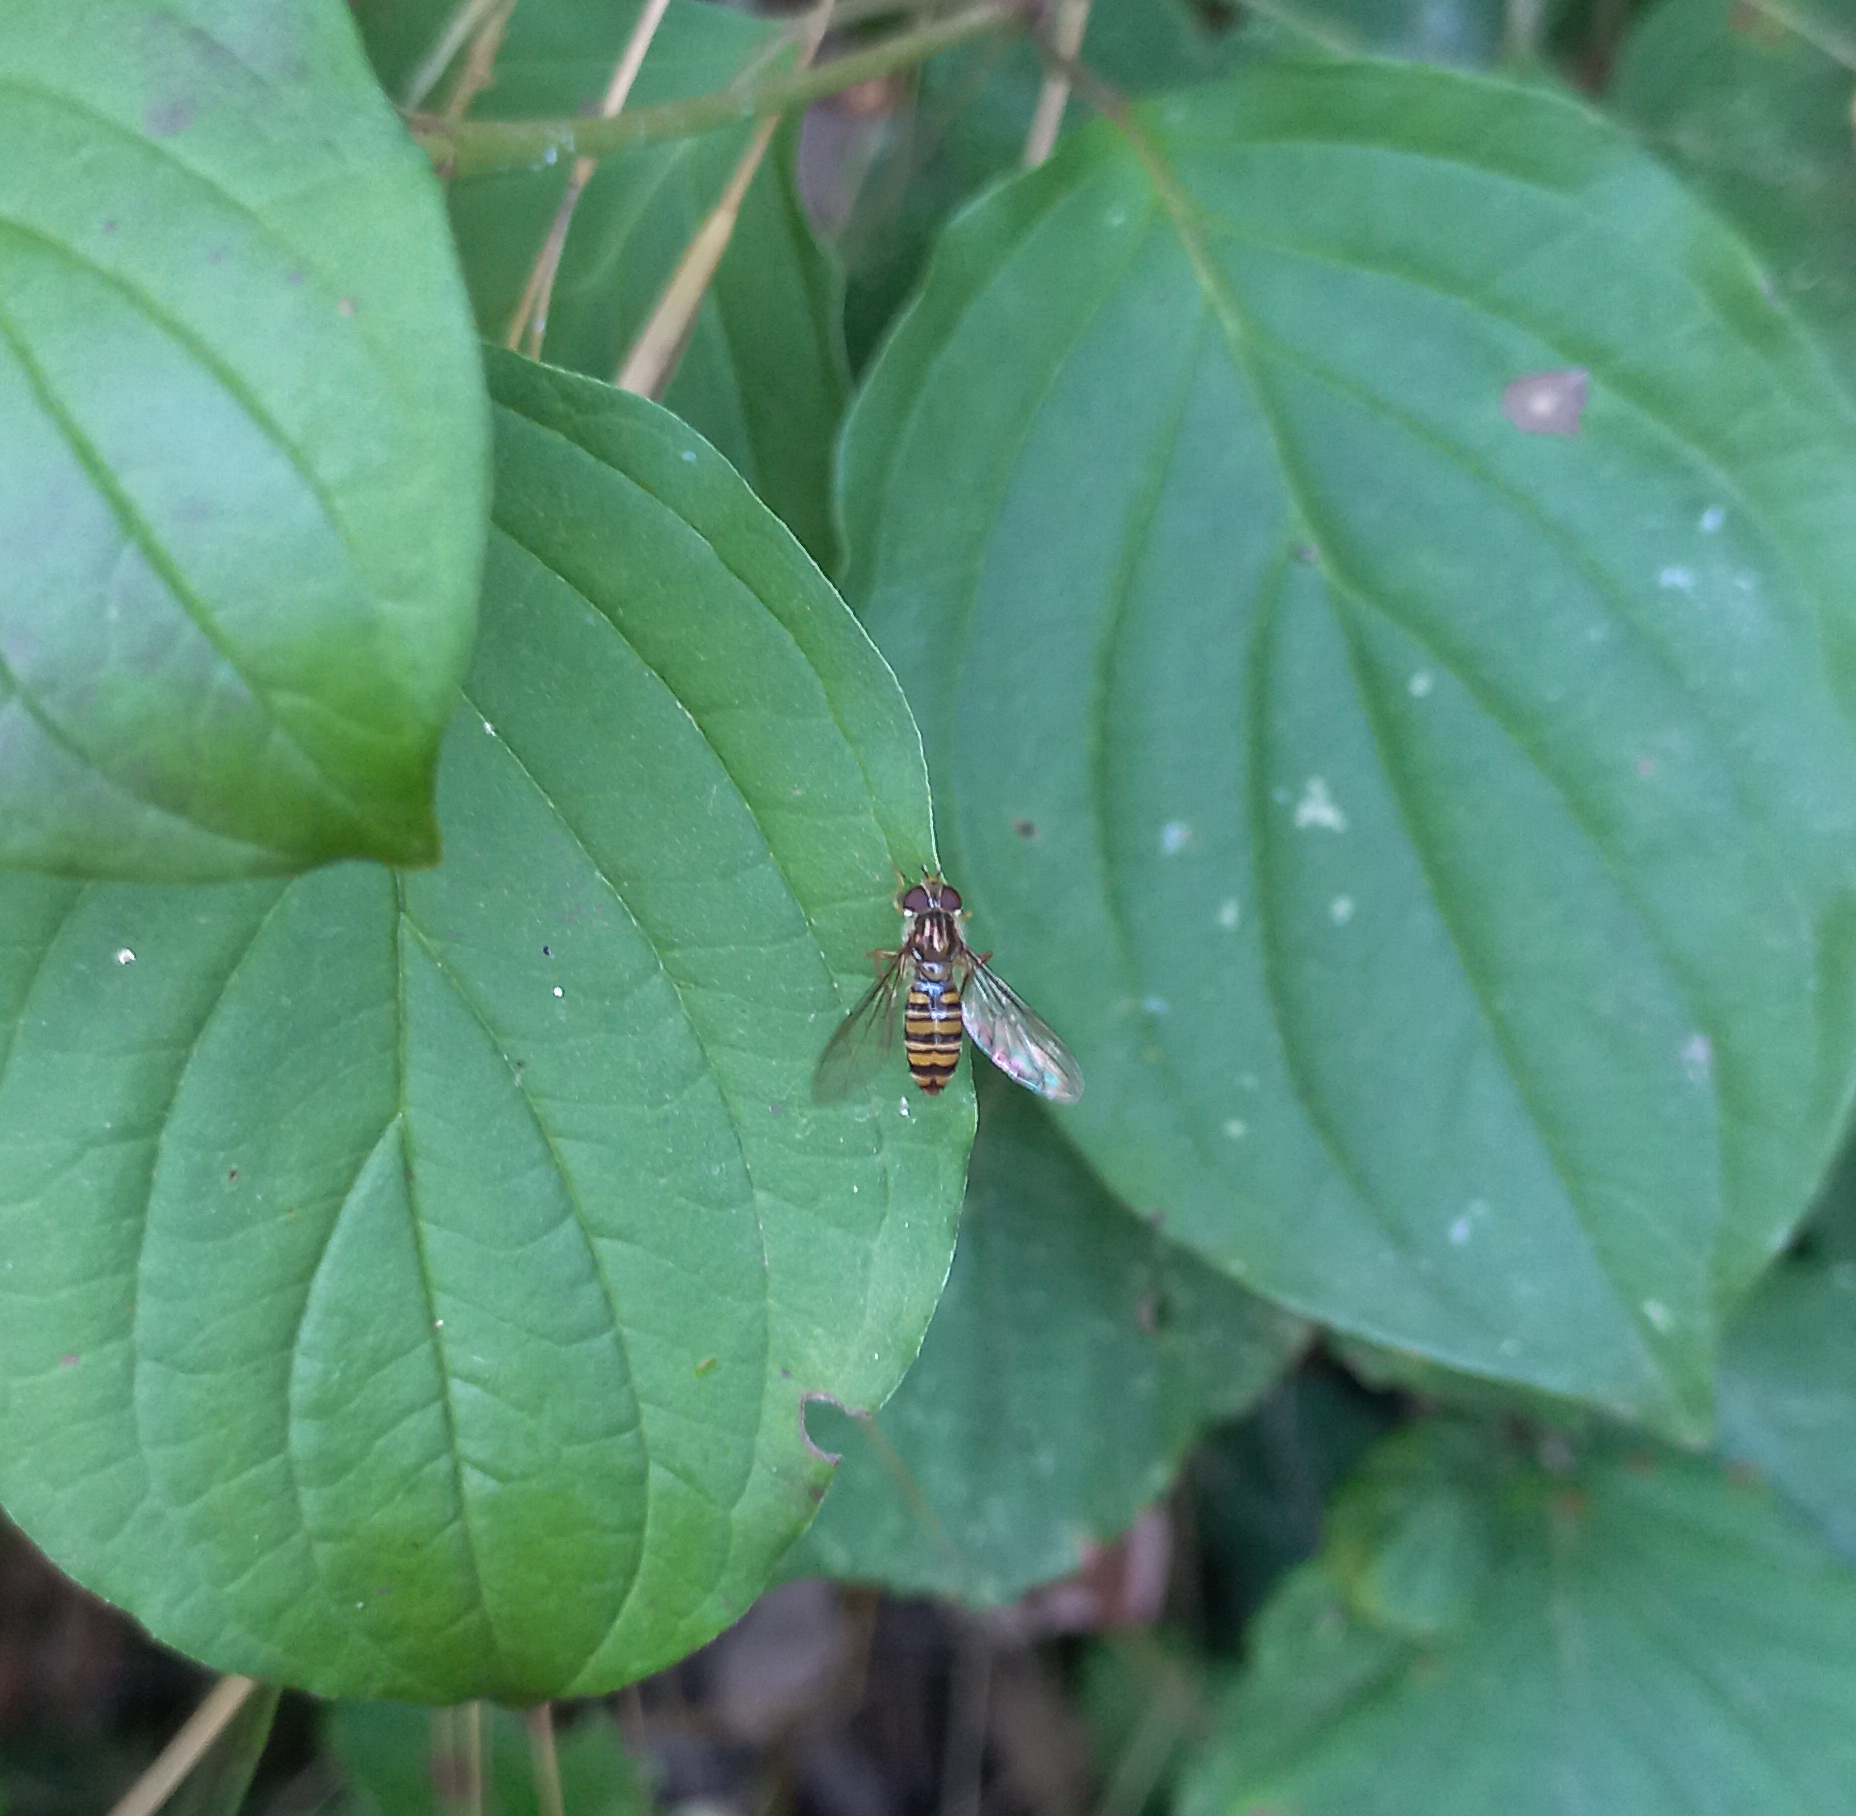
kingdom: Animalia
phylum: Arthropoda
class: Insecta
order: Diptera
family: Syrphidae
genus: Episyrphus
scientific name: Episyrphus balteatus
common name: Marmalade hoverfly
